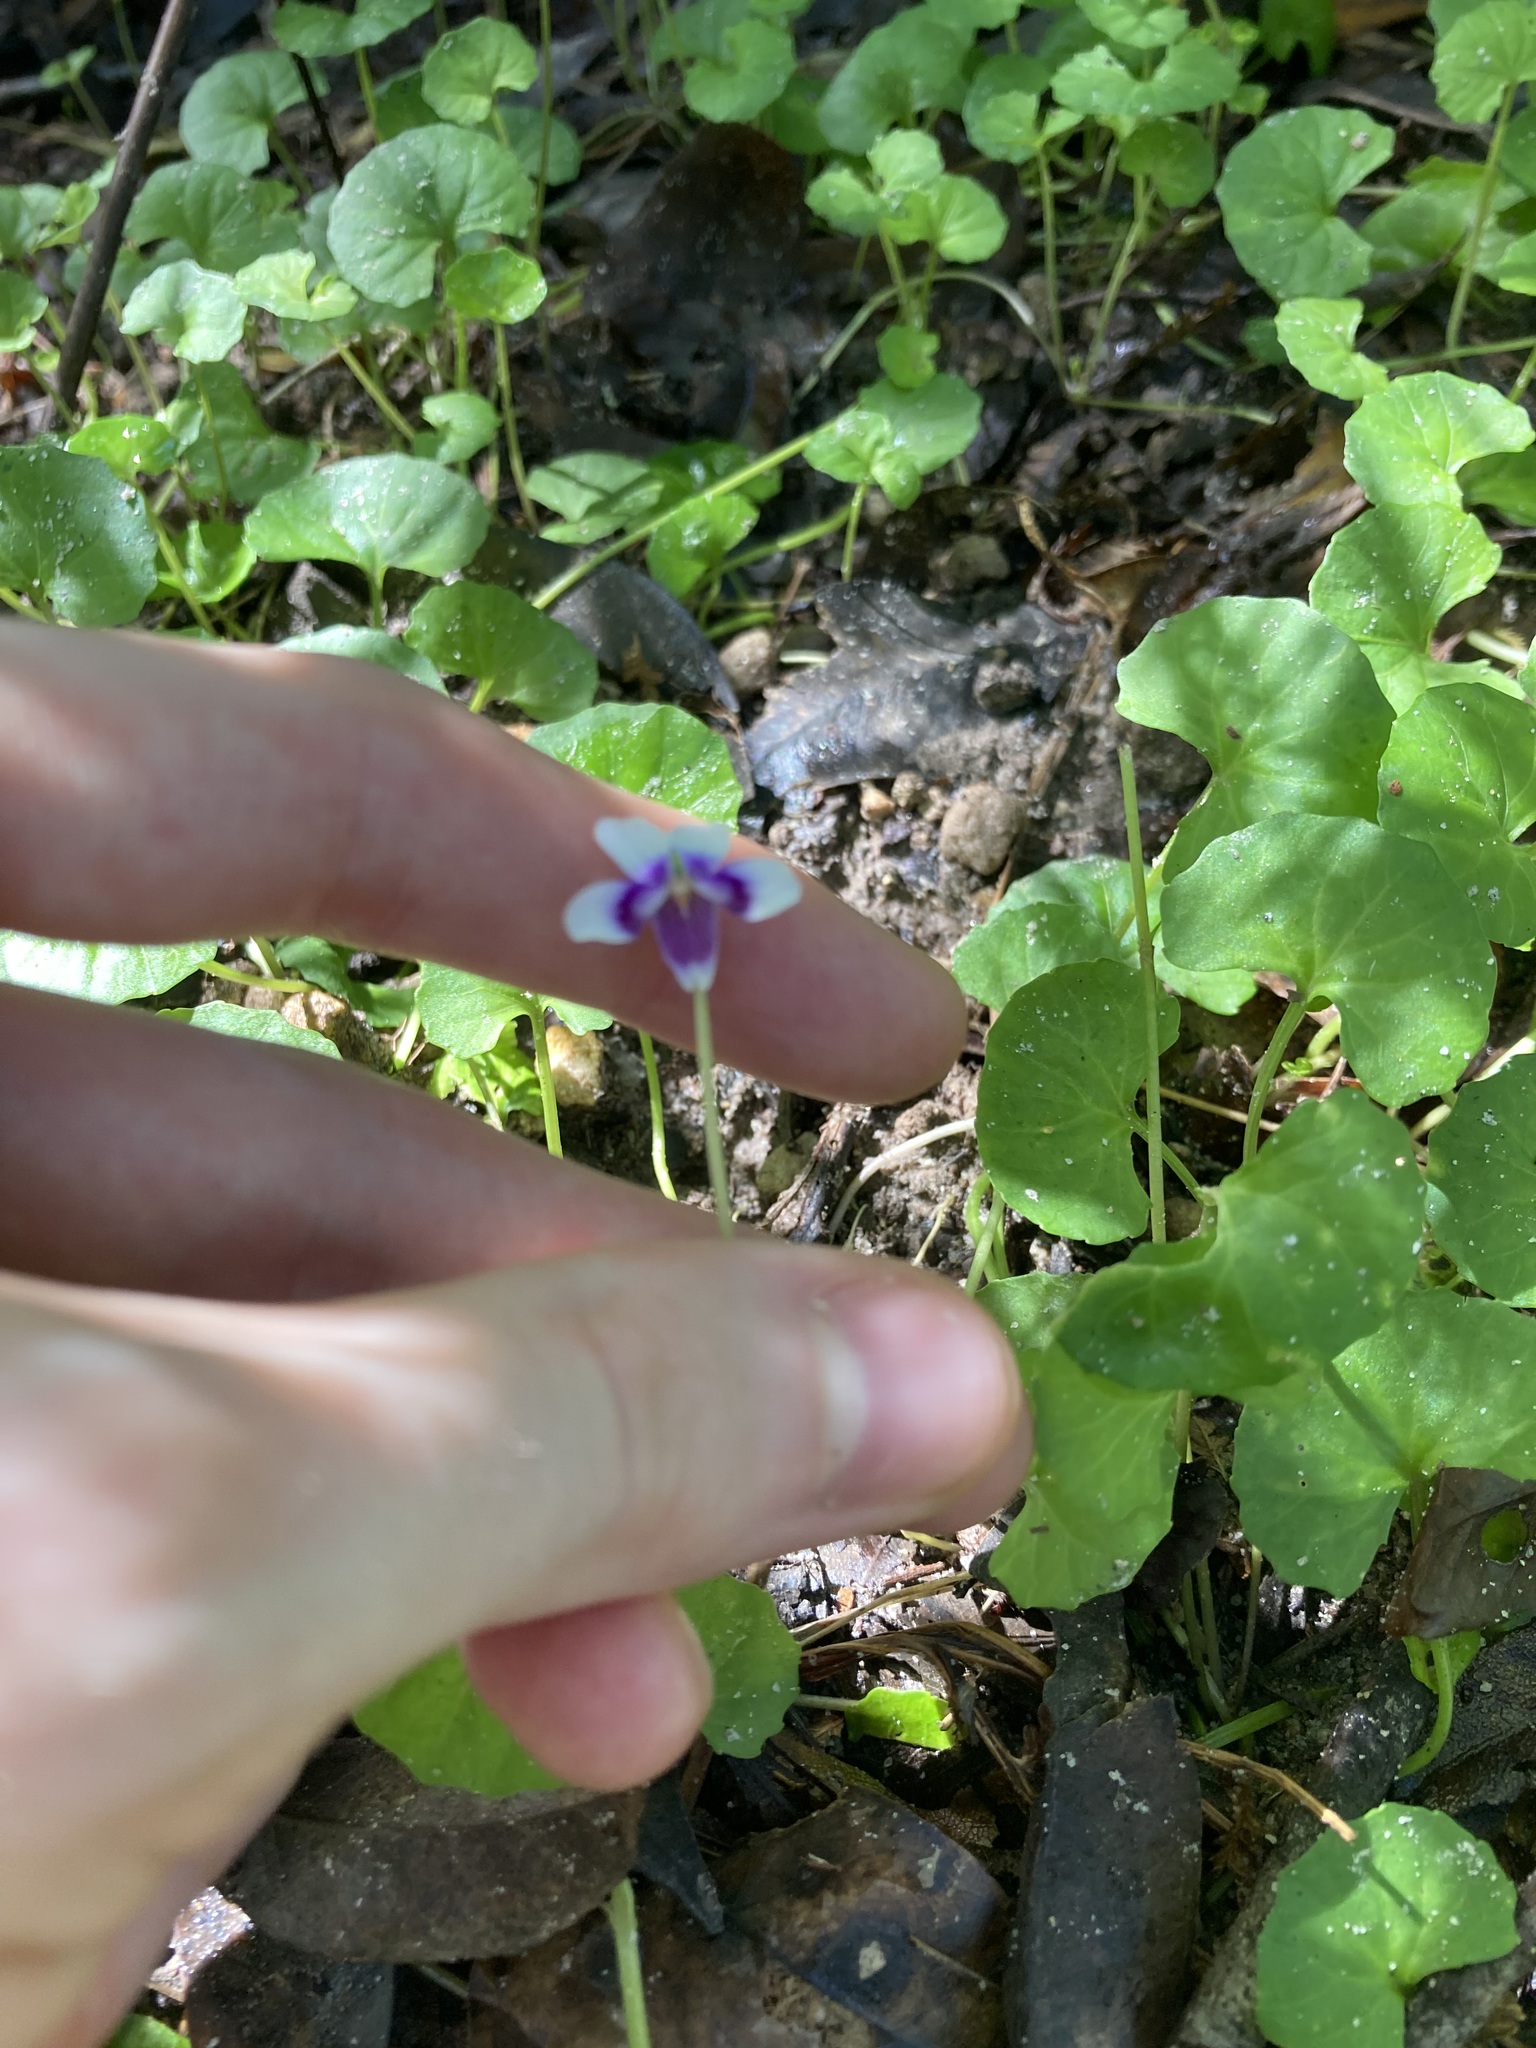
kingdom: Plantae
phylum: Tracheophyta
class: Magnoliopsida
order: Malpighiales
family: Violaceae
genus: Viola
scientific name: Viola banksii
